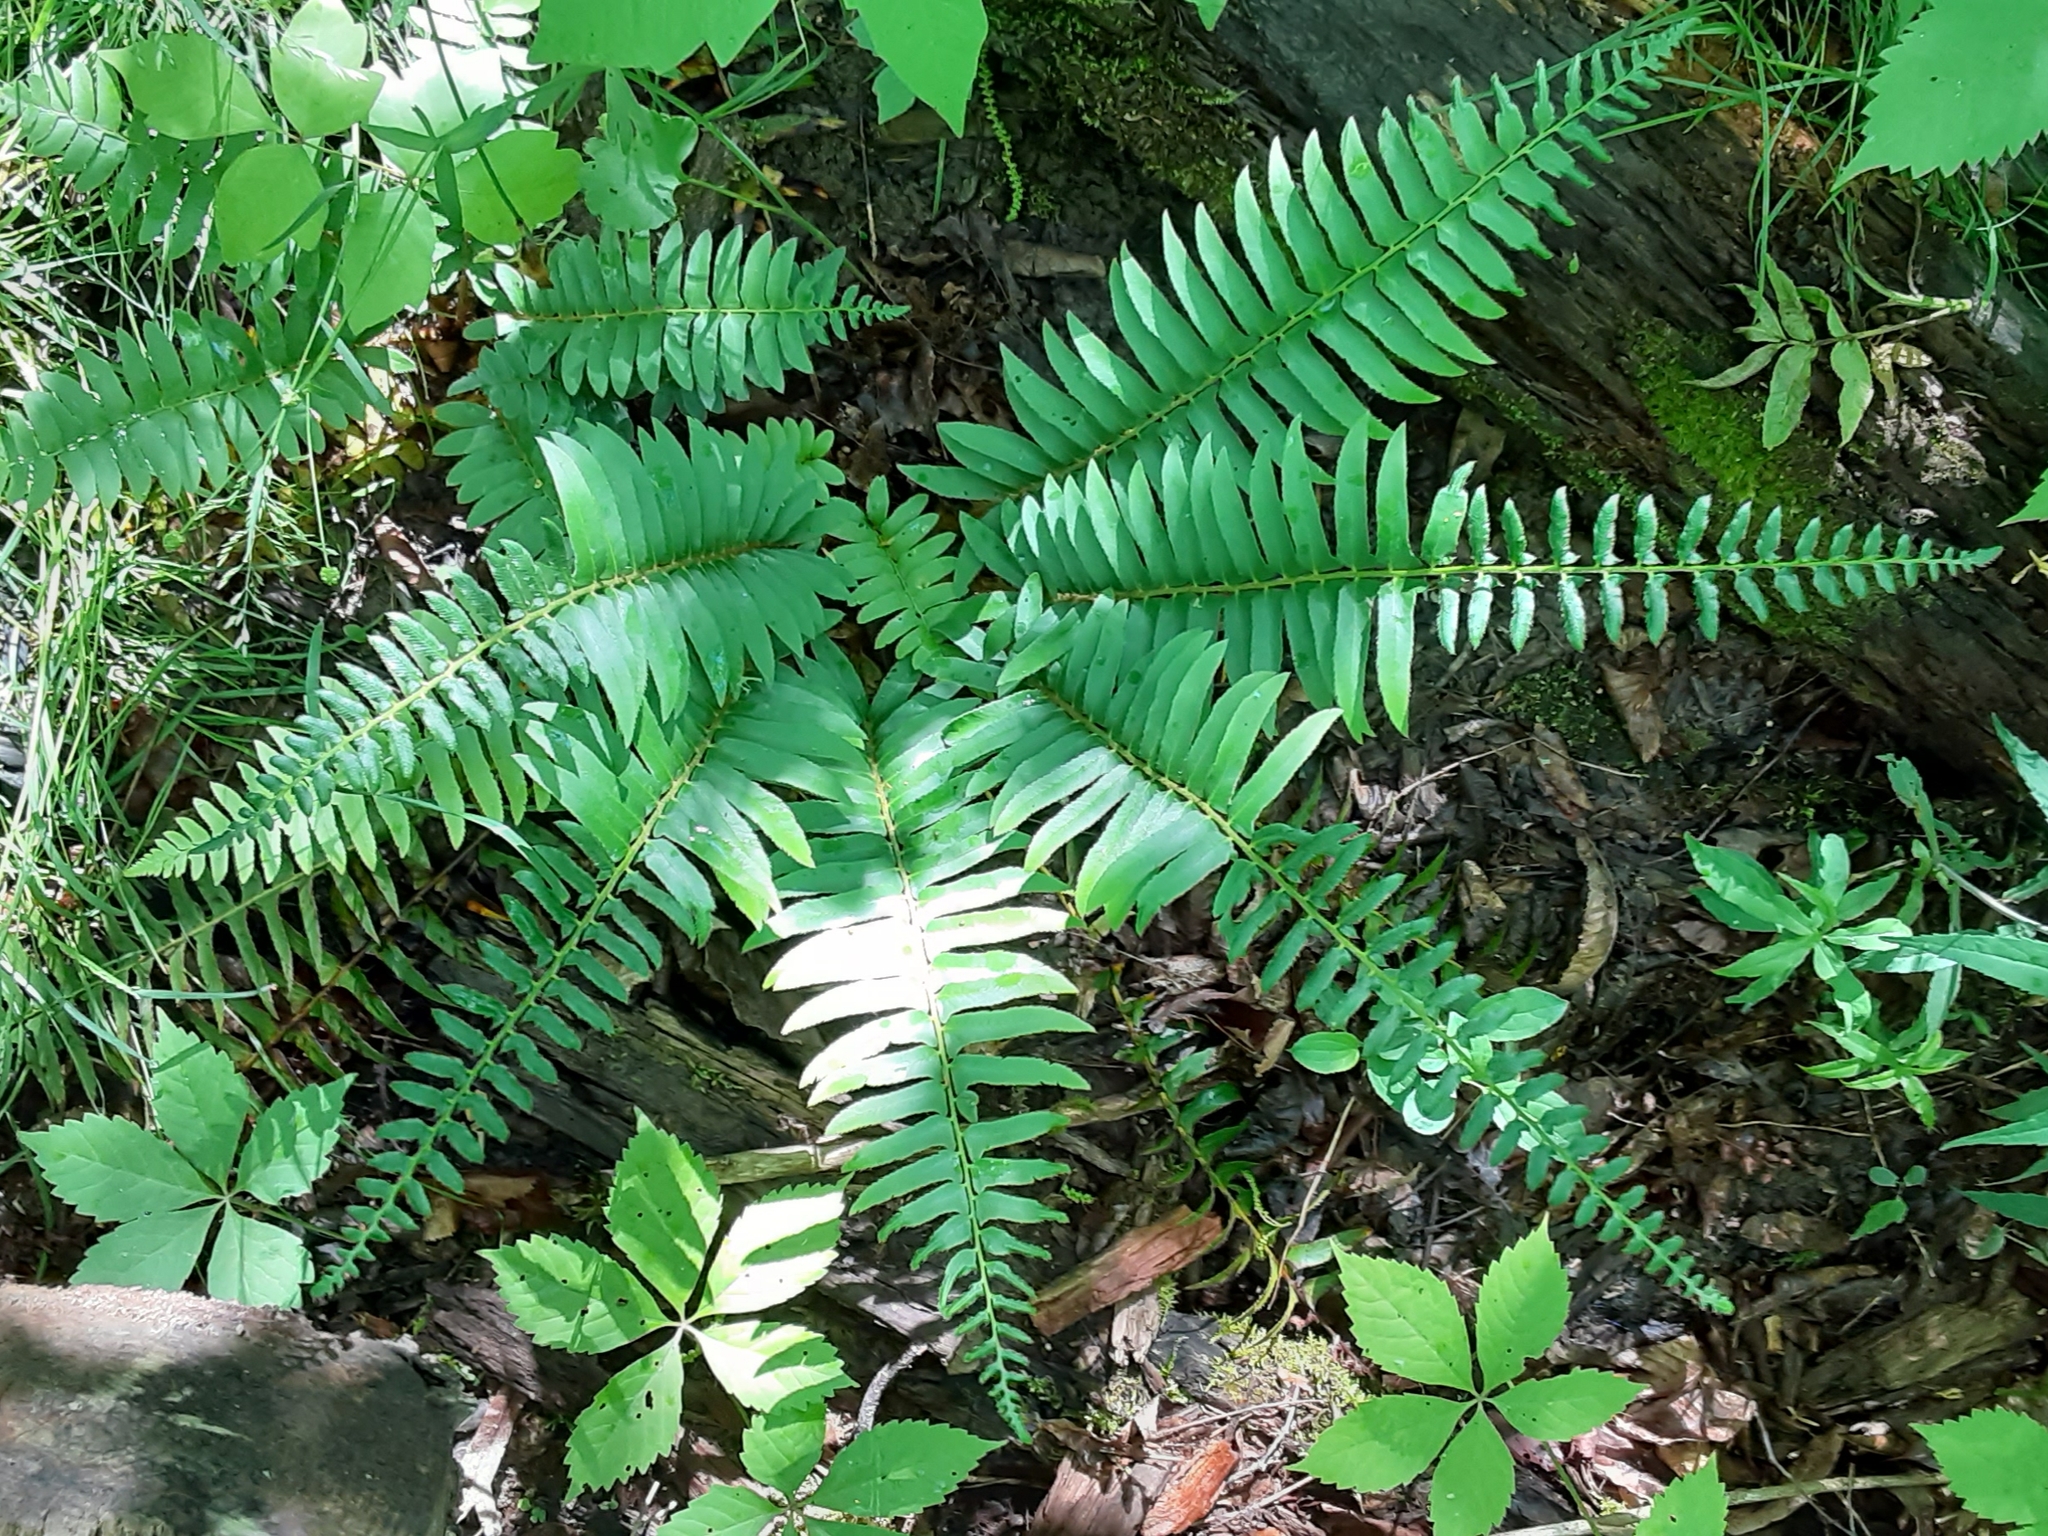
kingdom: Plantae
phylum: Tracheophyta
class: Polypodiopsida
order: Polypodiales
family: Dryopteridaceae
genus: Polystichum
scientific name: Polystichum acrostichoides
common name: Christmas fern
